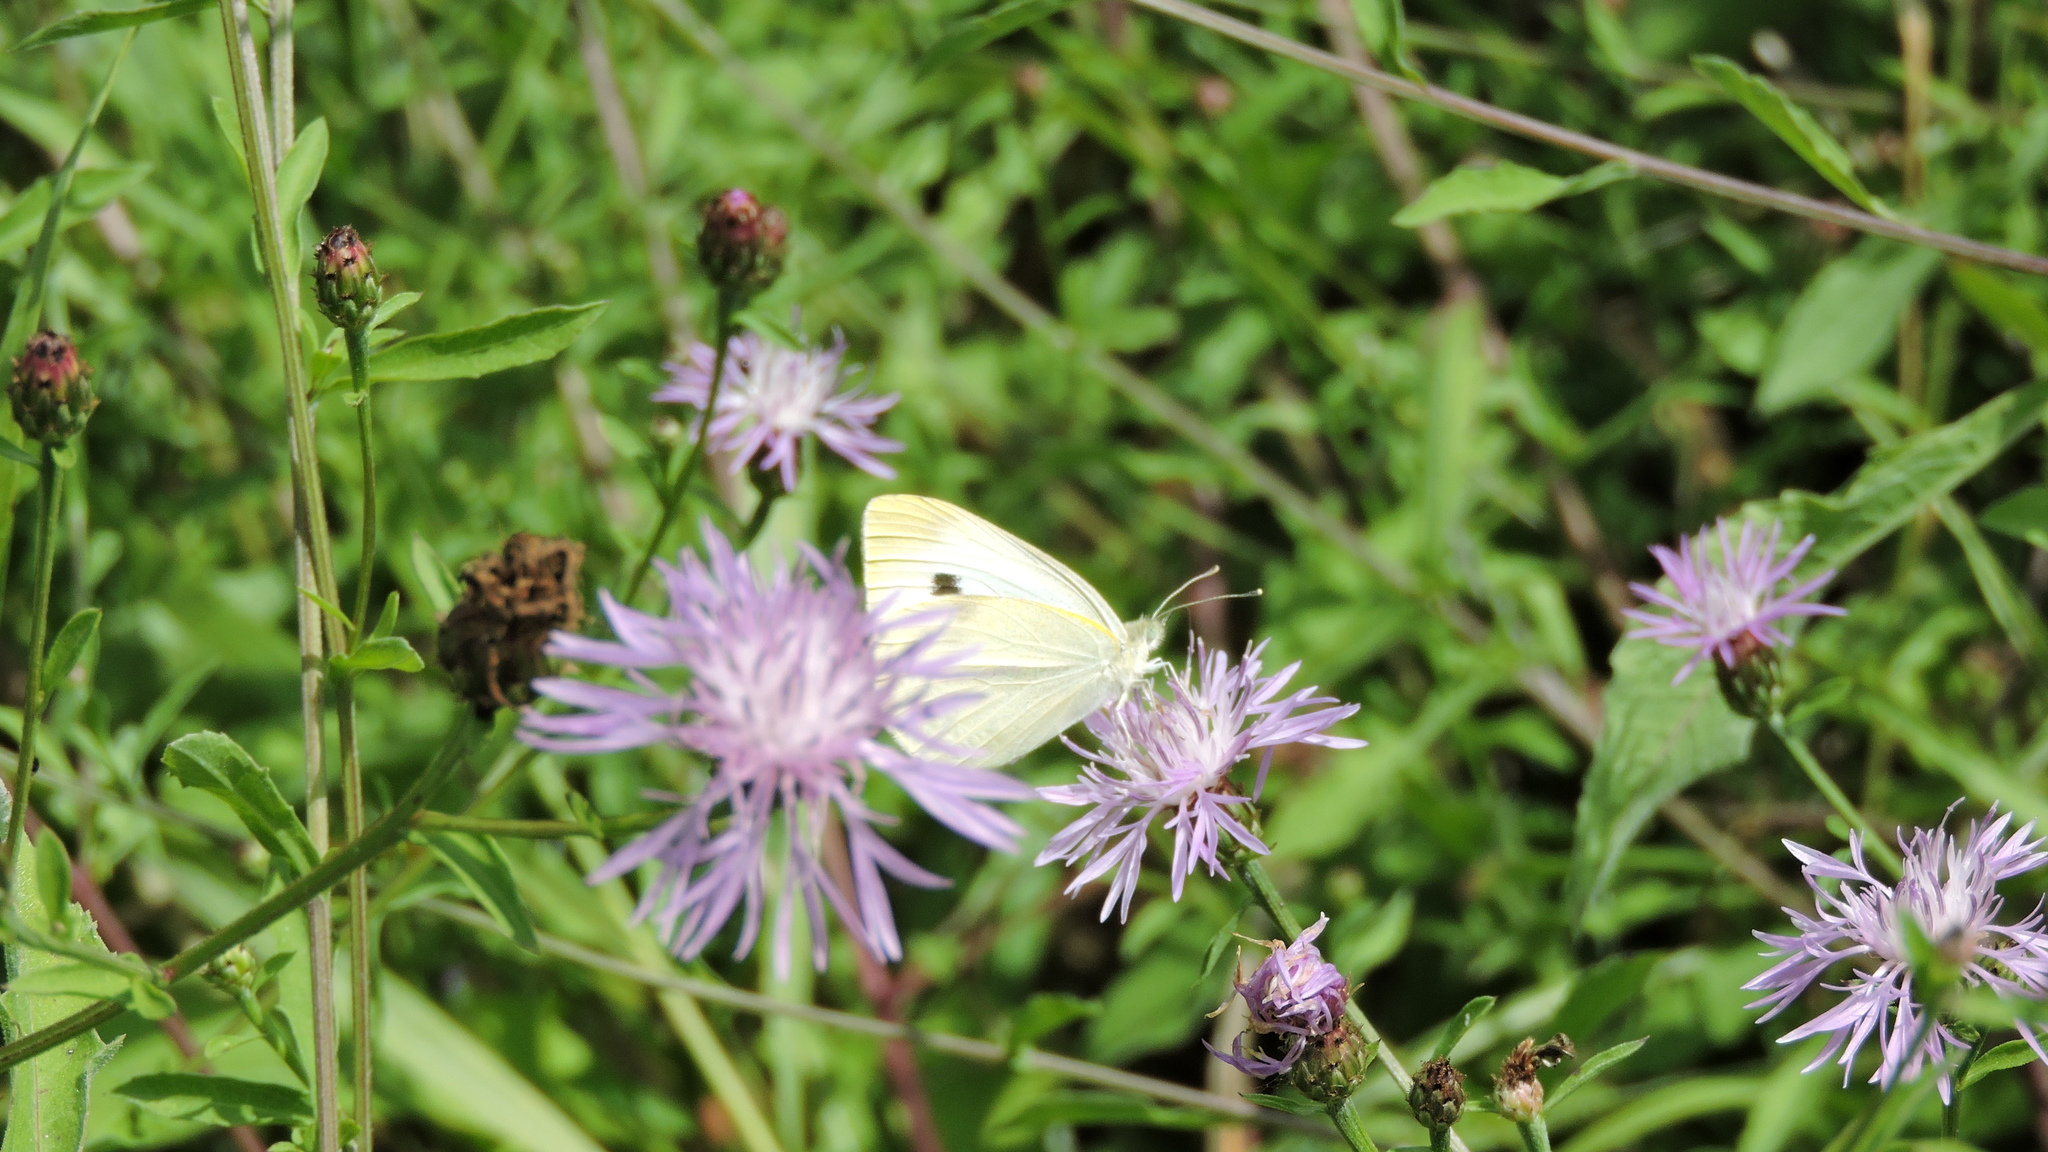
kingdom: Animalia
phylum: Arthropoda
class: Insecta
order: Lepidoptera
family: Pieridae
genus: Pieris
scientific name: Pieris rapae
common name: Small white
